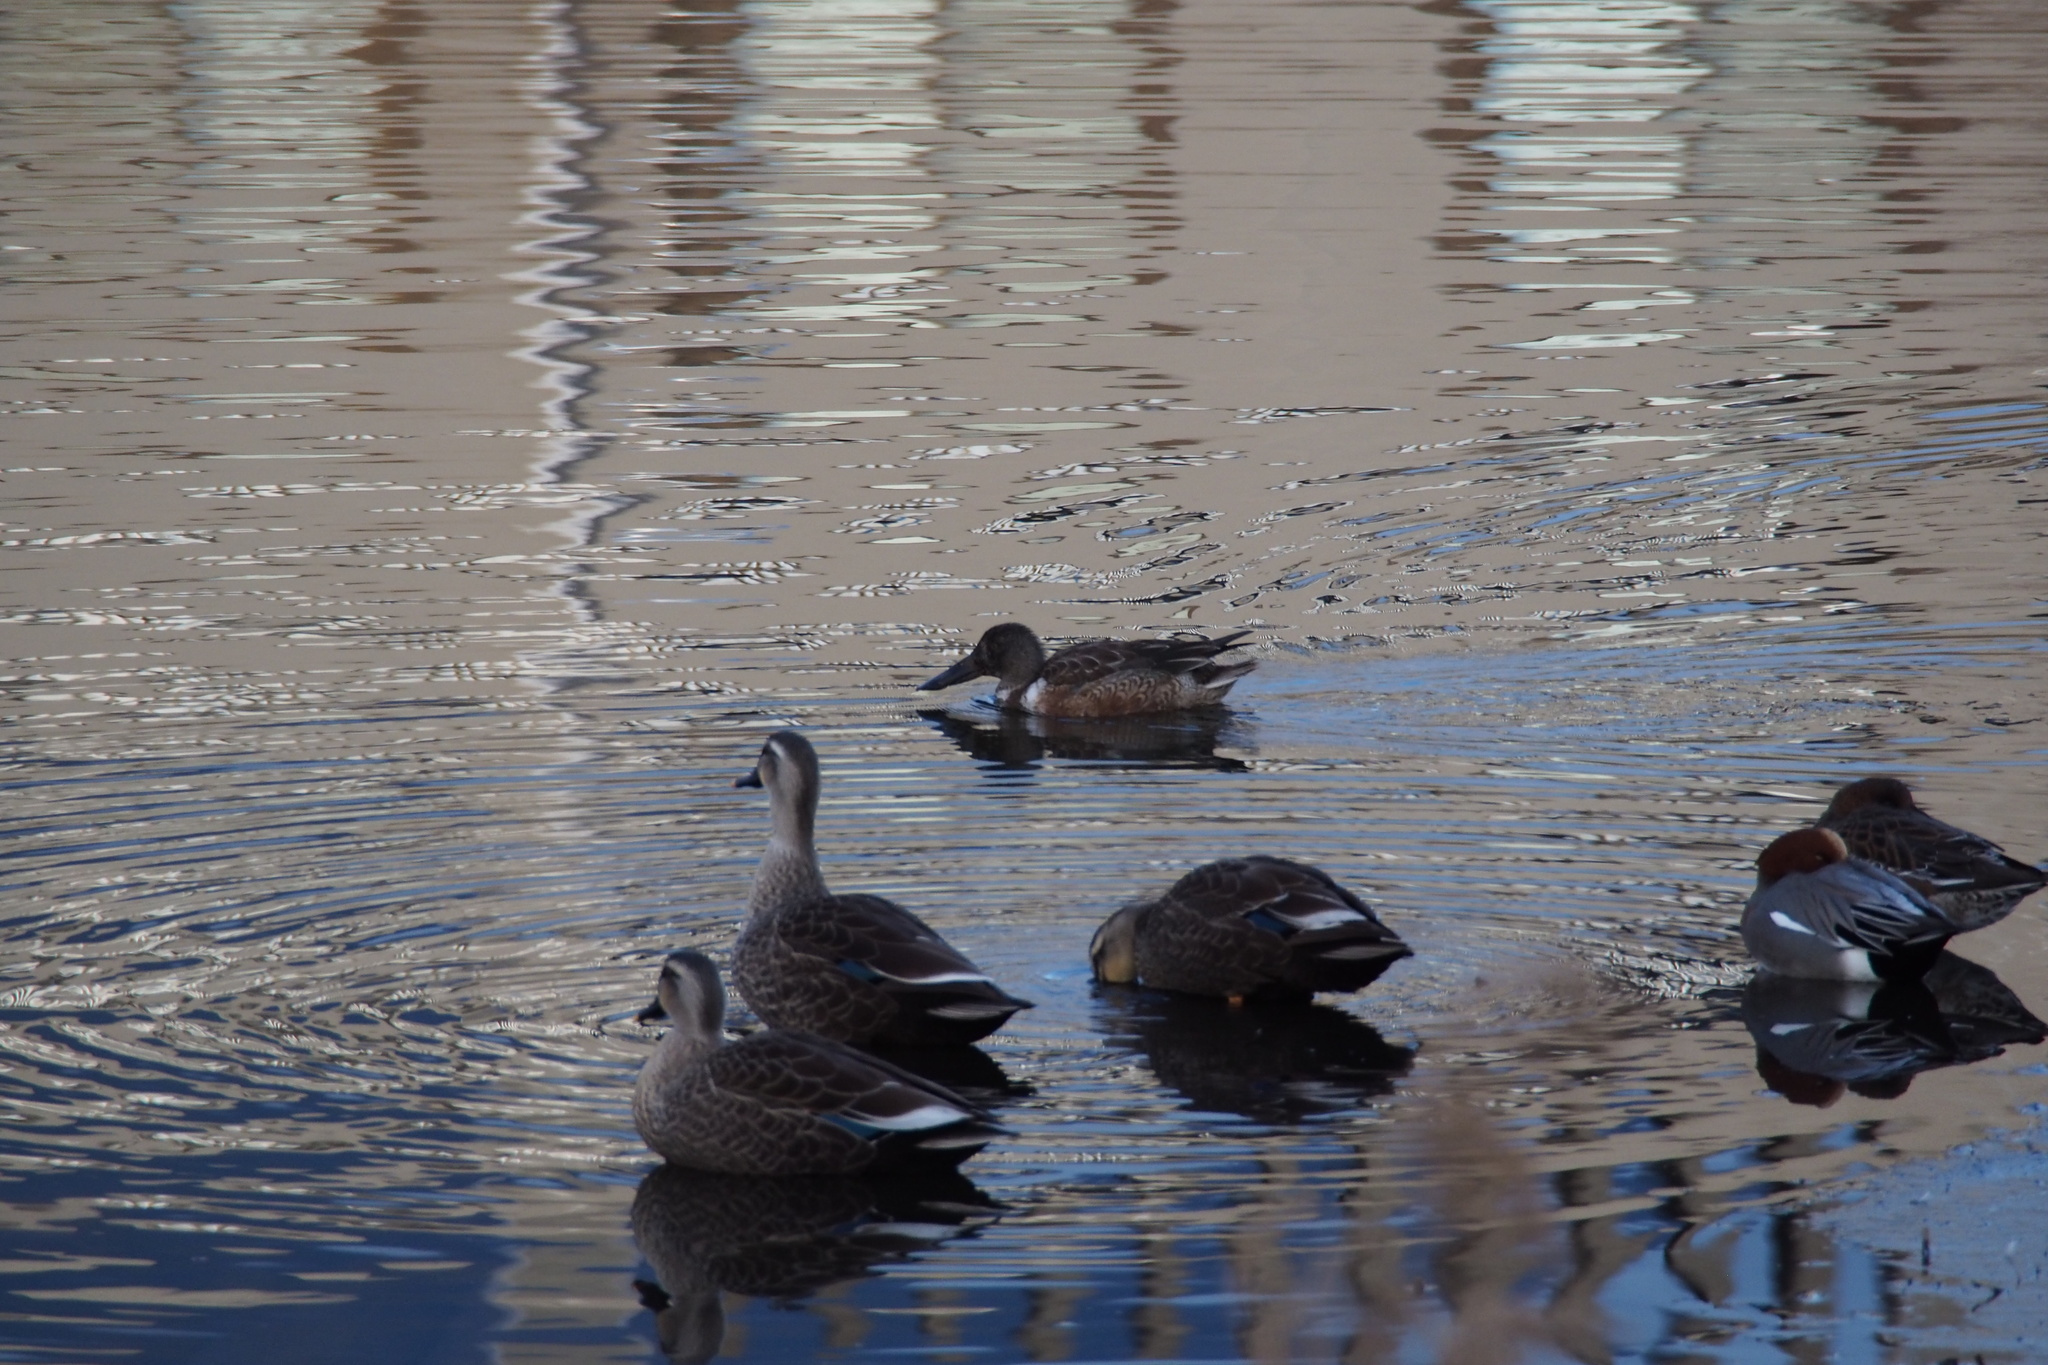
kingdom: Animalia
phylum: Chordata
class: Aves
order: Anseriformes
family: Anatidae
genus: Spatula
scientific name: Spatula clypeata
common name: Northern shoveler
